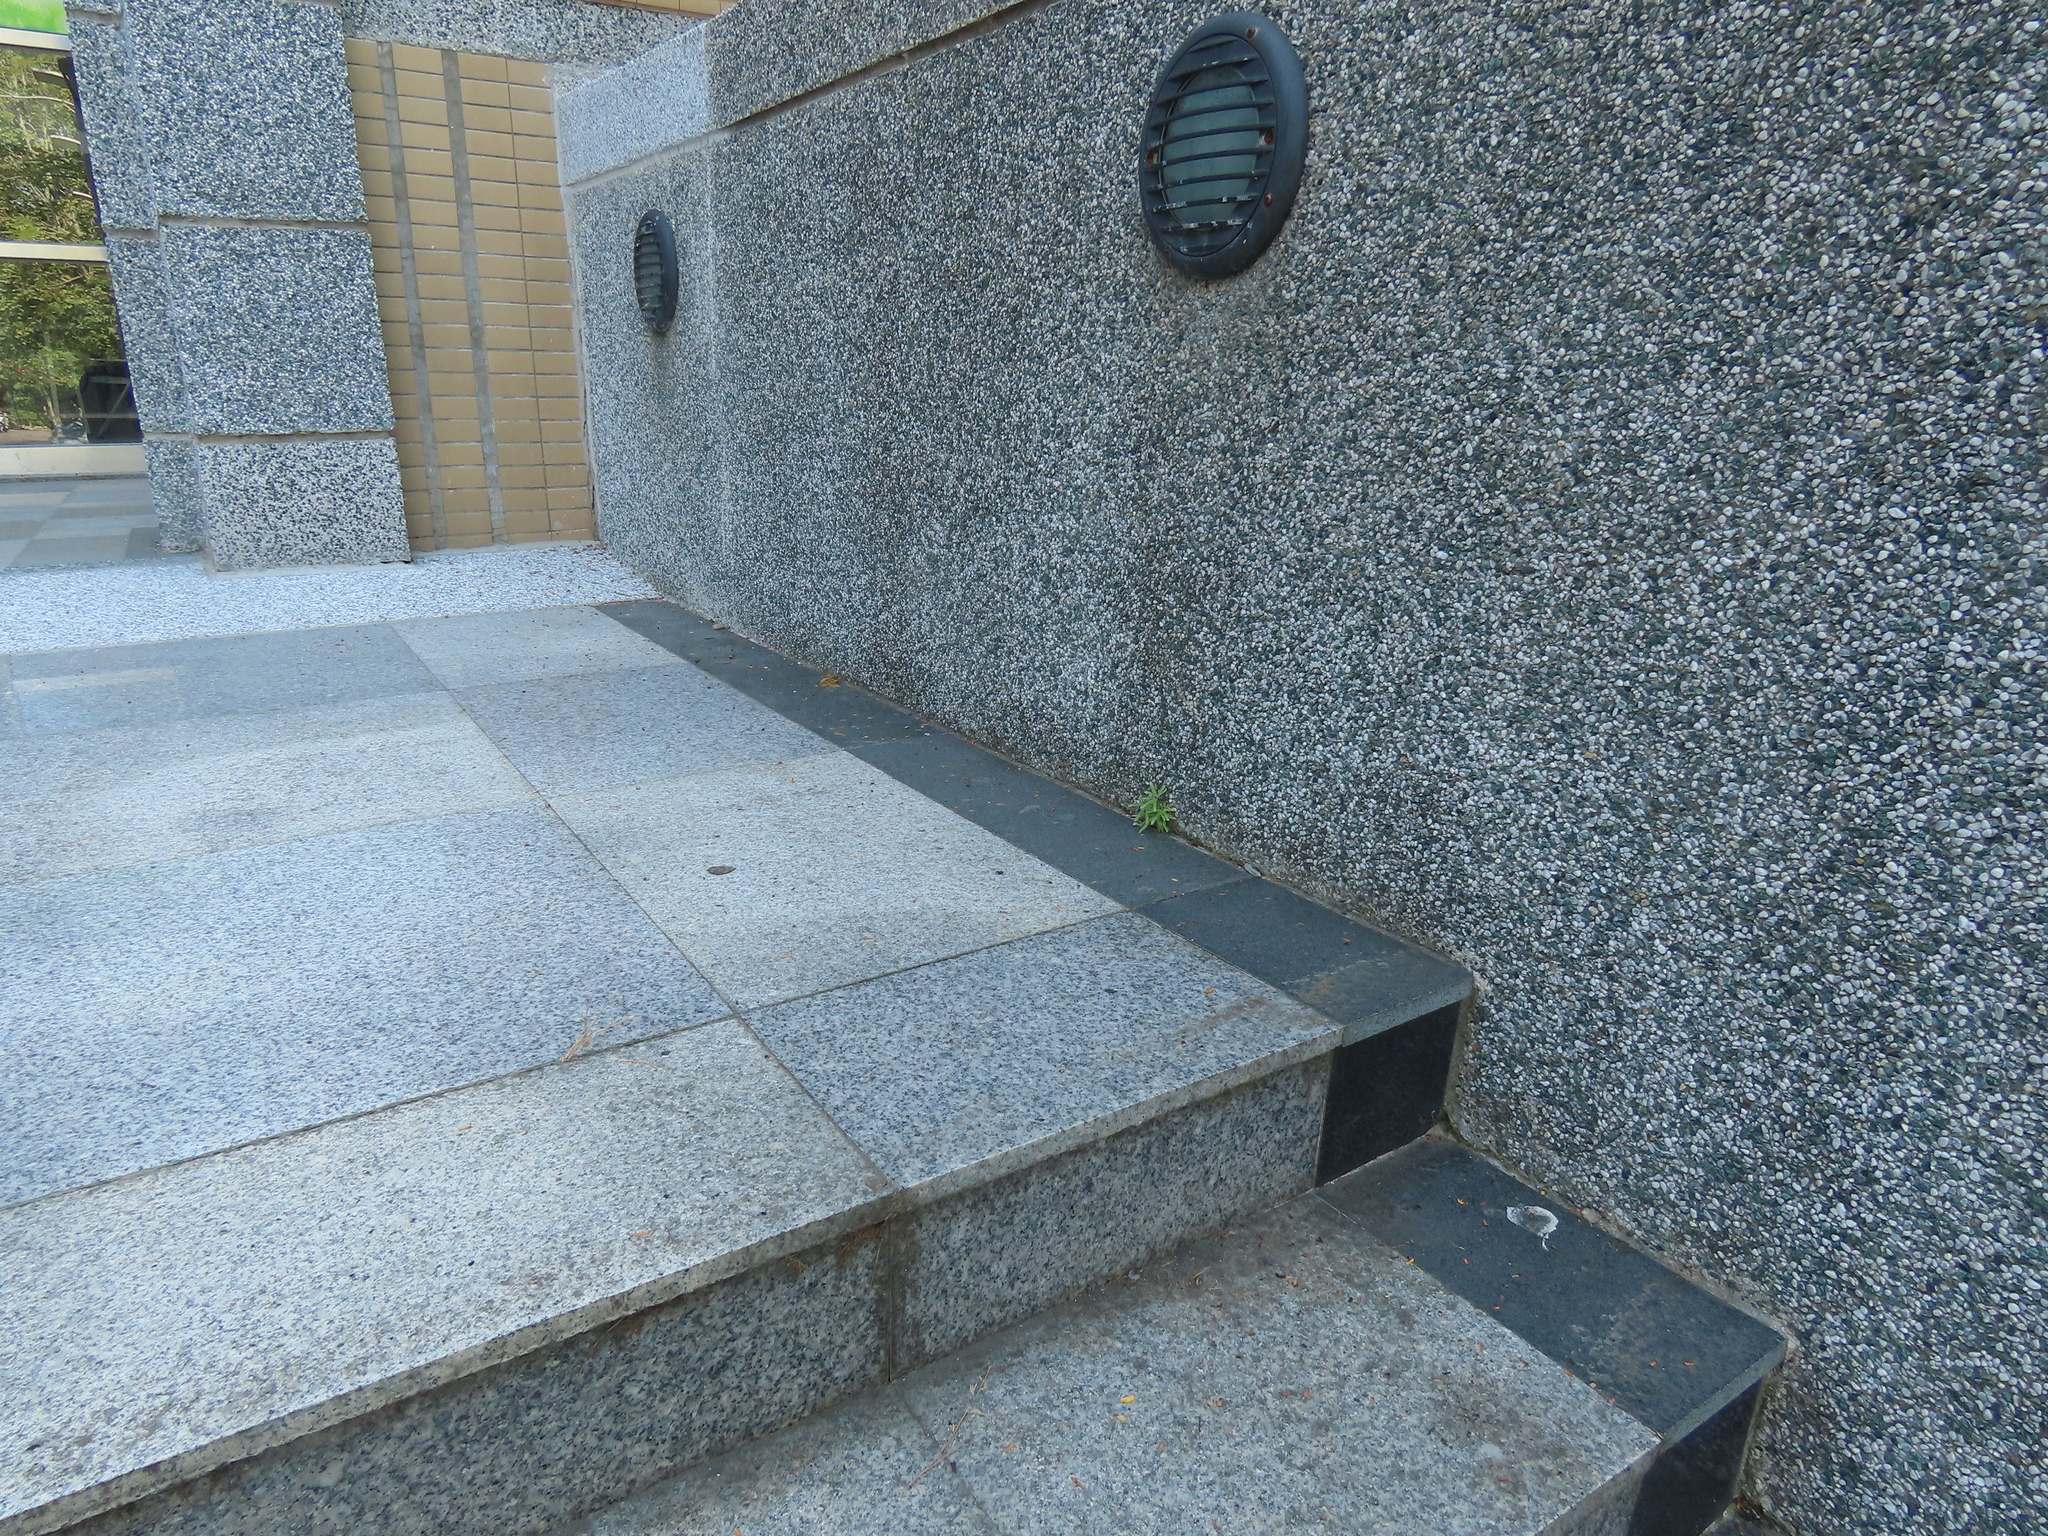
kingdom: Plantae
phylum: Tracheophyta
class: Polypodiopsida
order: Schizaeales
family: Lygodiaceae
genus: Lygodium
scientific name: Lygodium japonicum
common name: Japanese climbing fern
